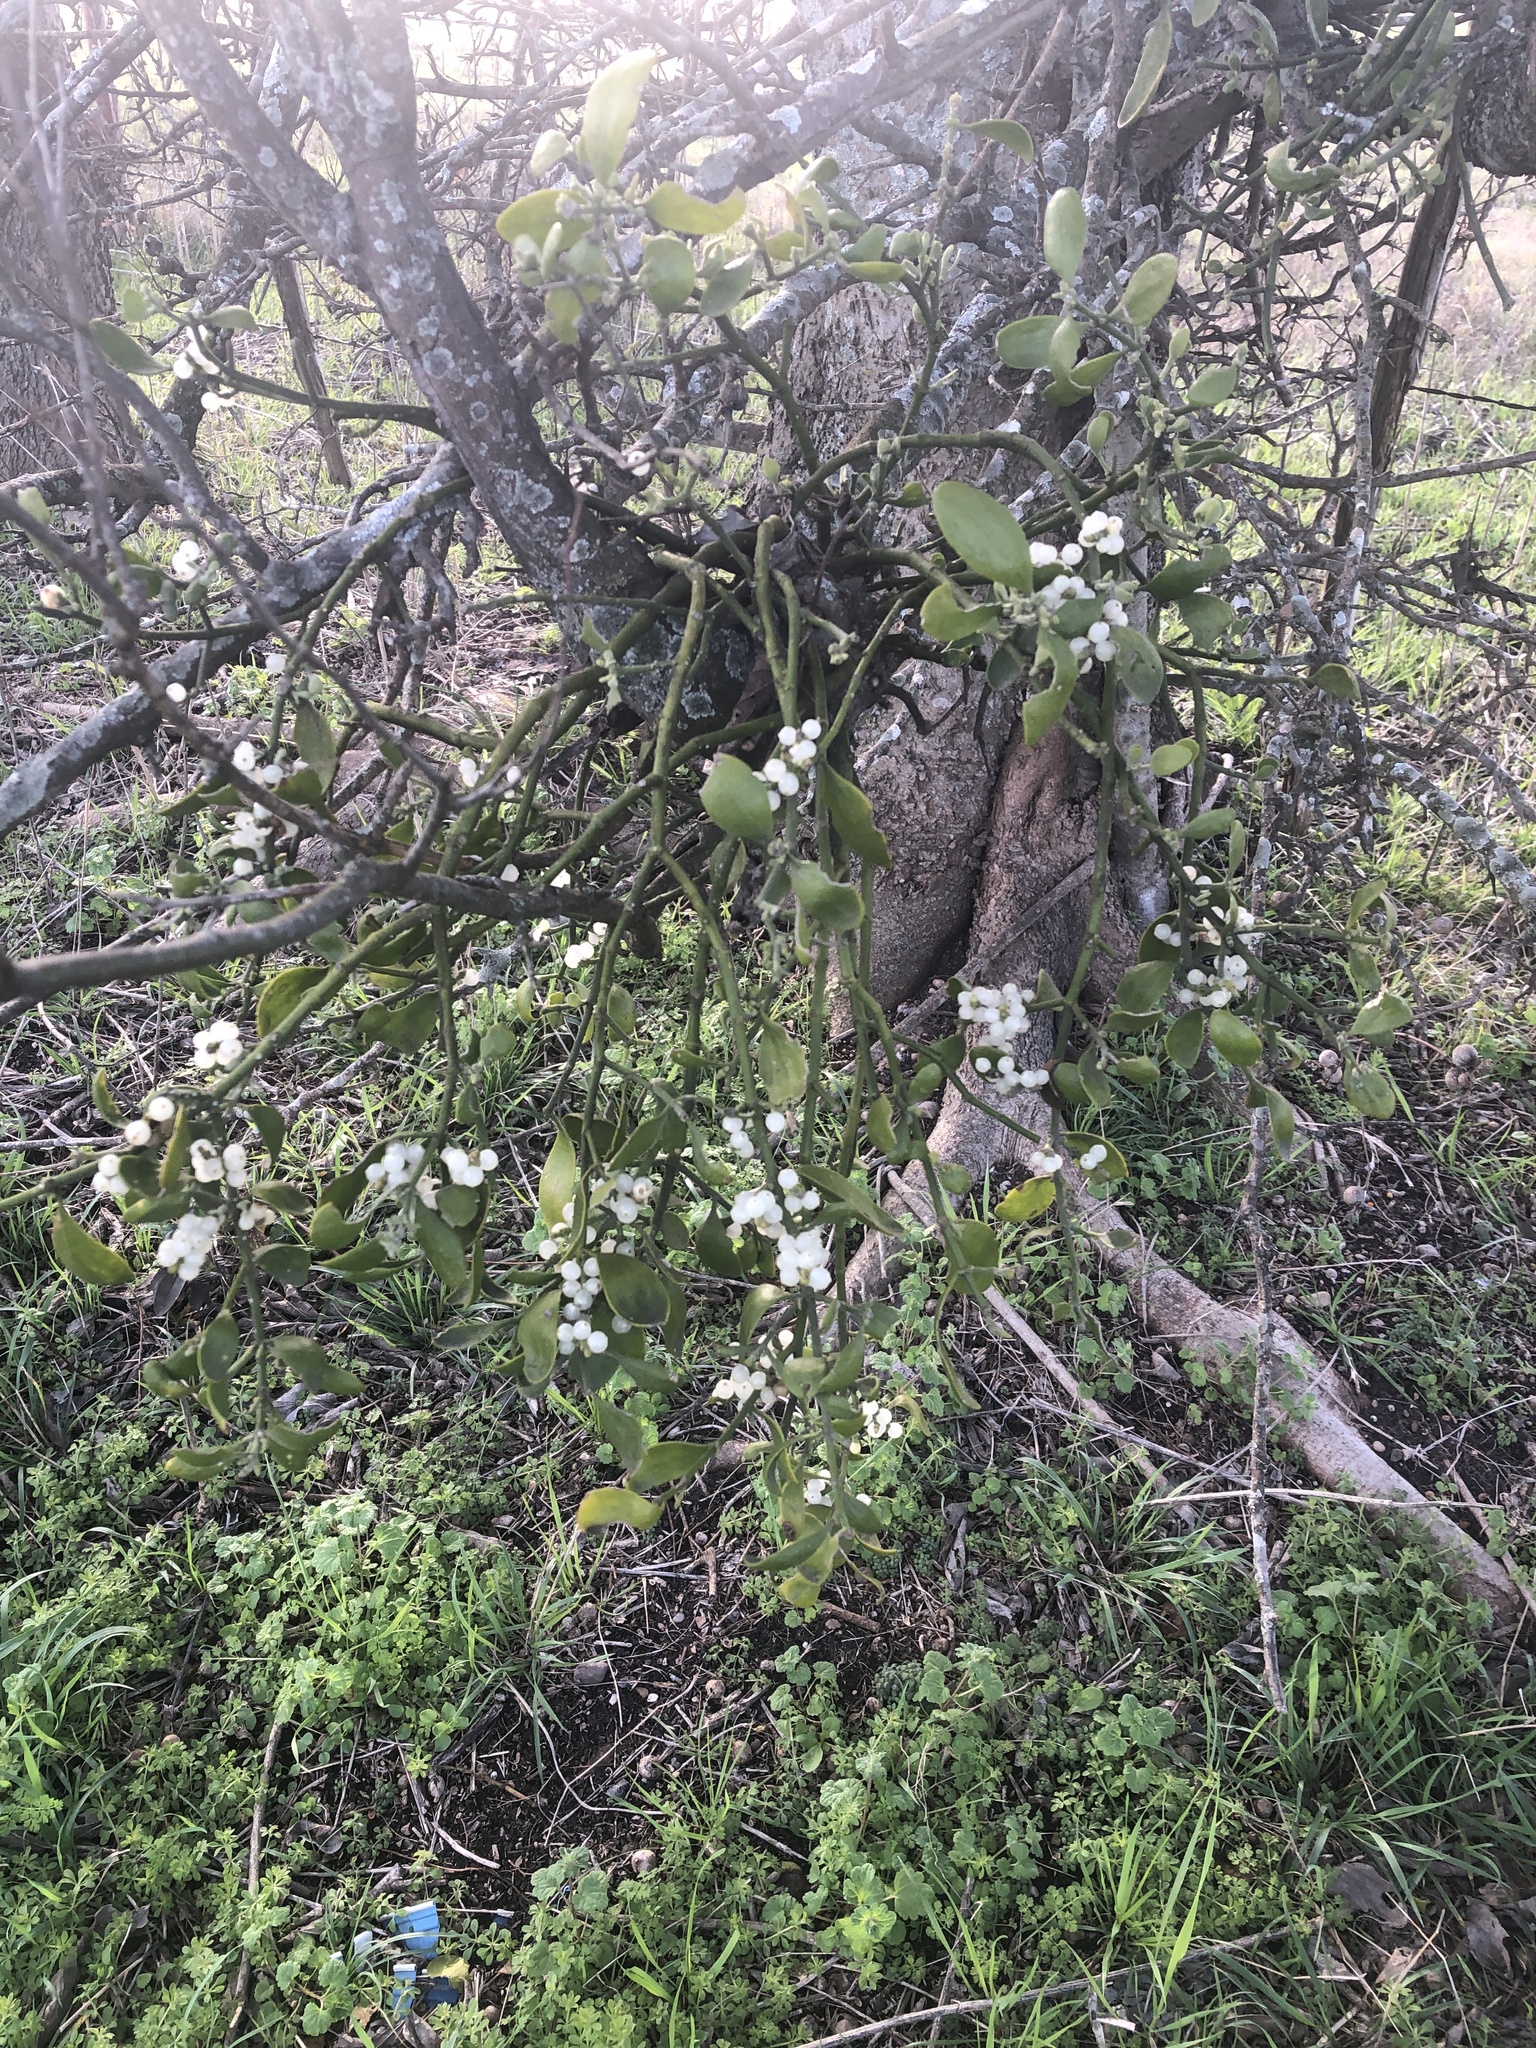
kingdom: Plantae
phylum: Tracheophyta
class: Magnoliopsida
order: Santalales
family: Viscaceae
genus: Phoradendron
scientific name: Phoradendron leucarpum
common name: Pacific mistletoe
